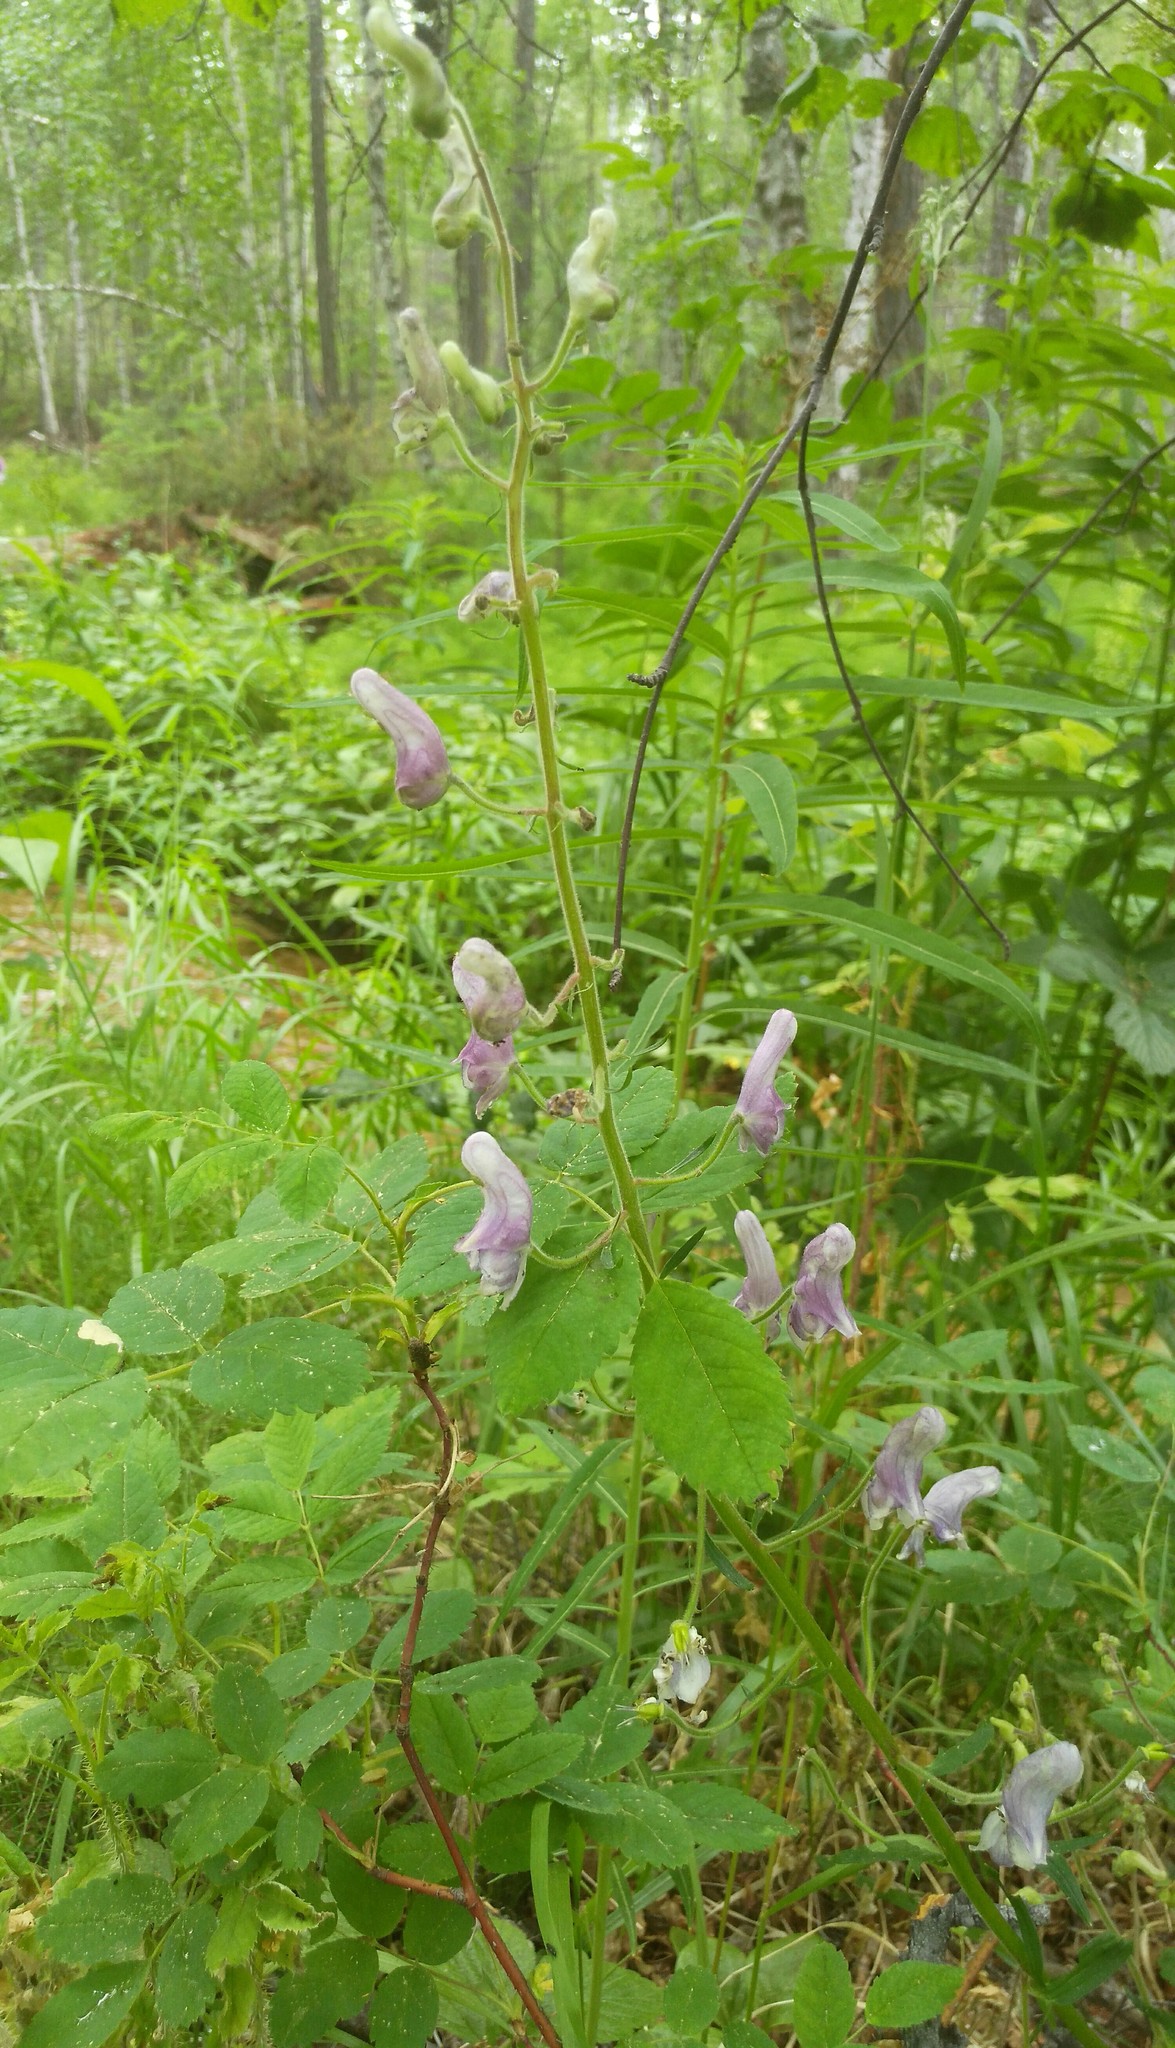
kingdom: Plantae
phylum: Tracheophyta
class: Magnoliopsida
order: Ranunculales
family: Ranunculaceae
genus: Aconitum
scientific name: Aconitum septentrionale
